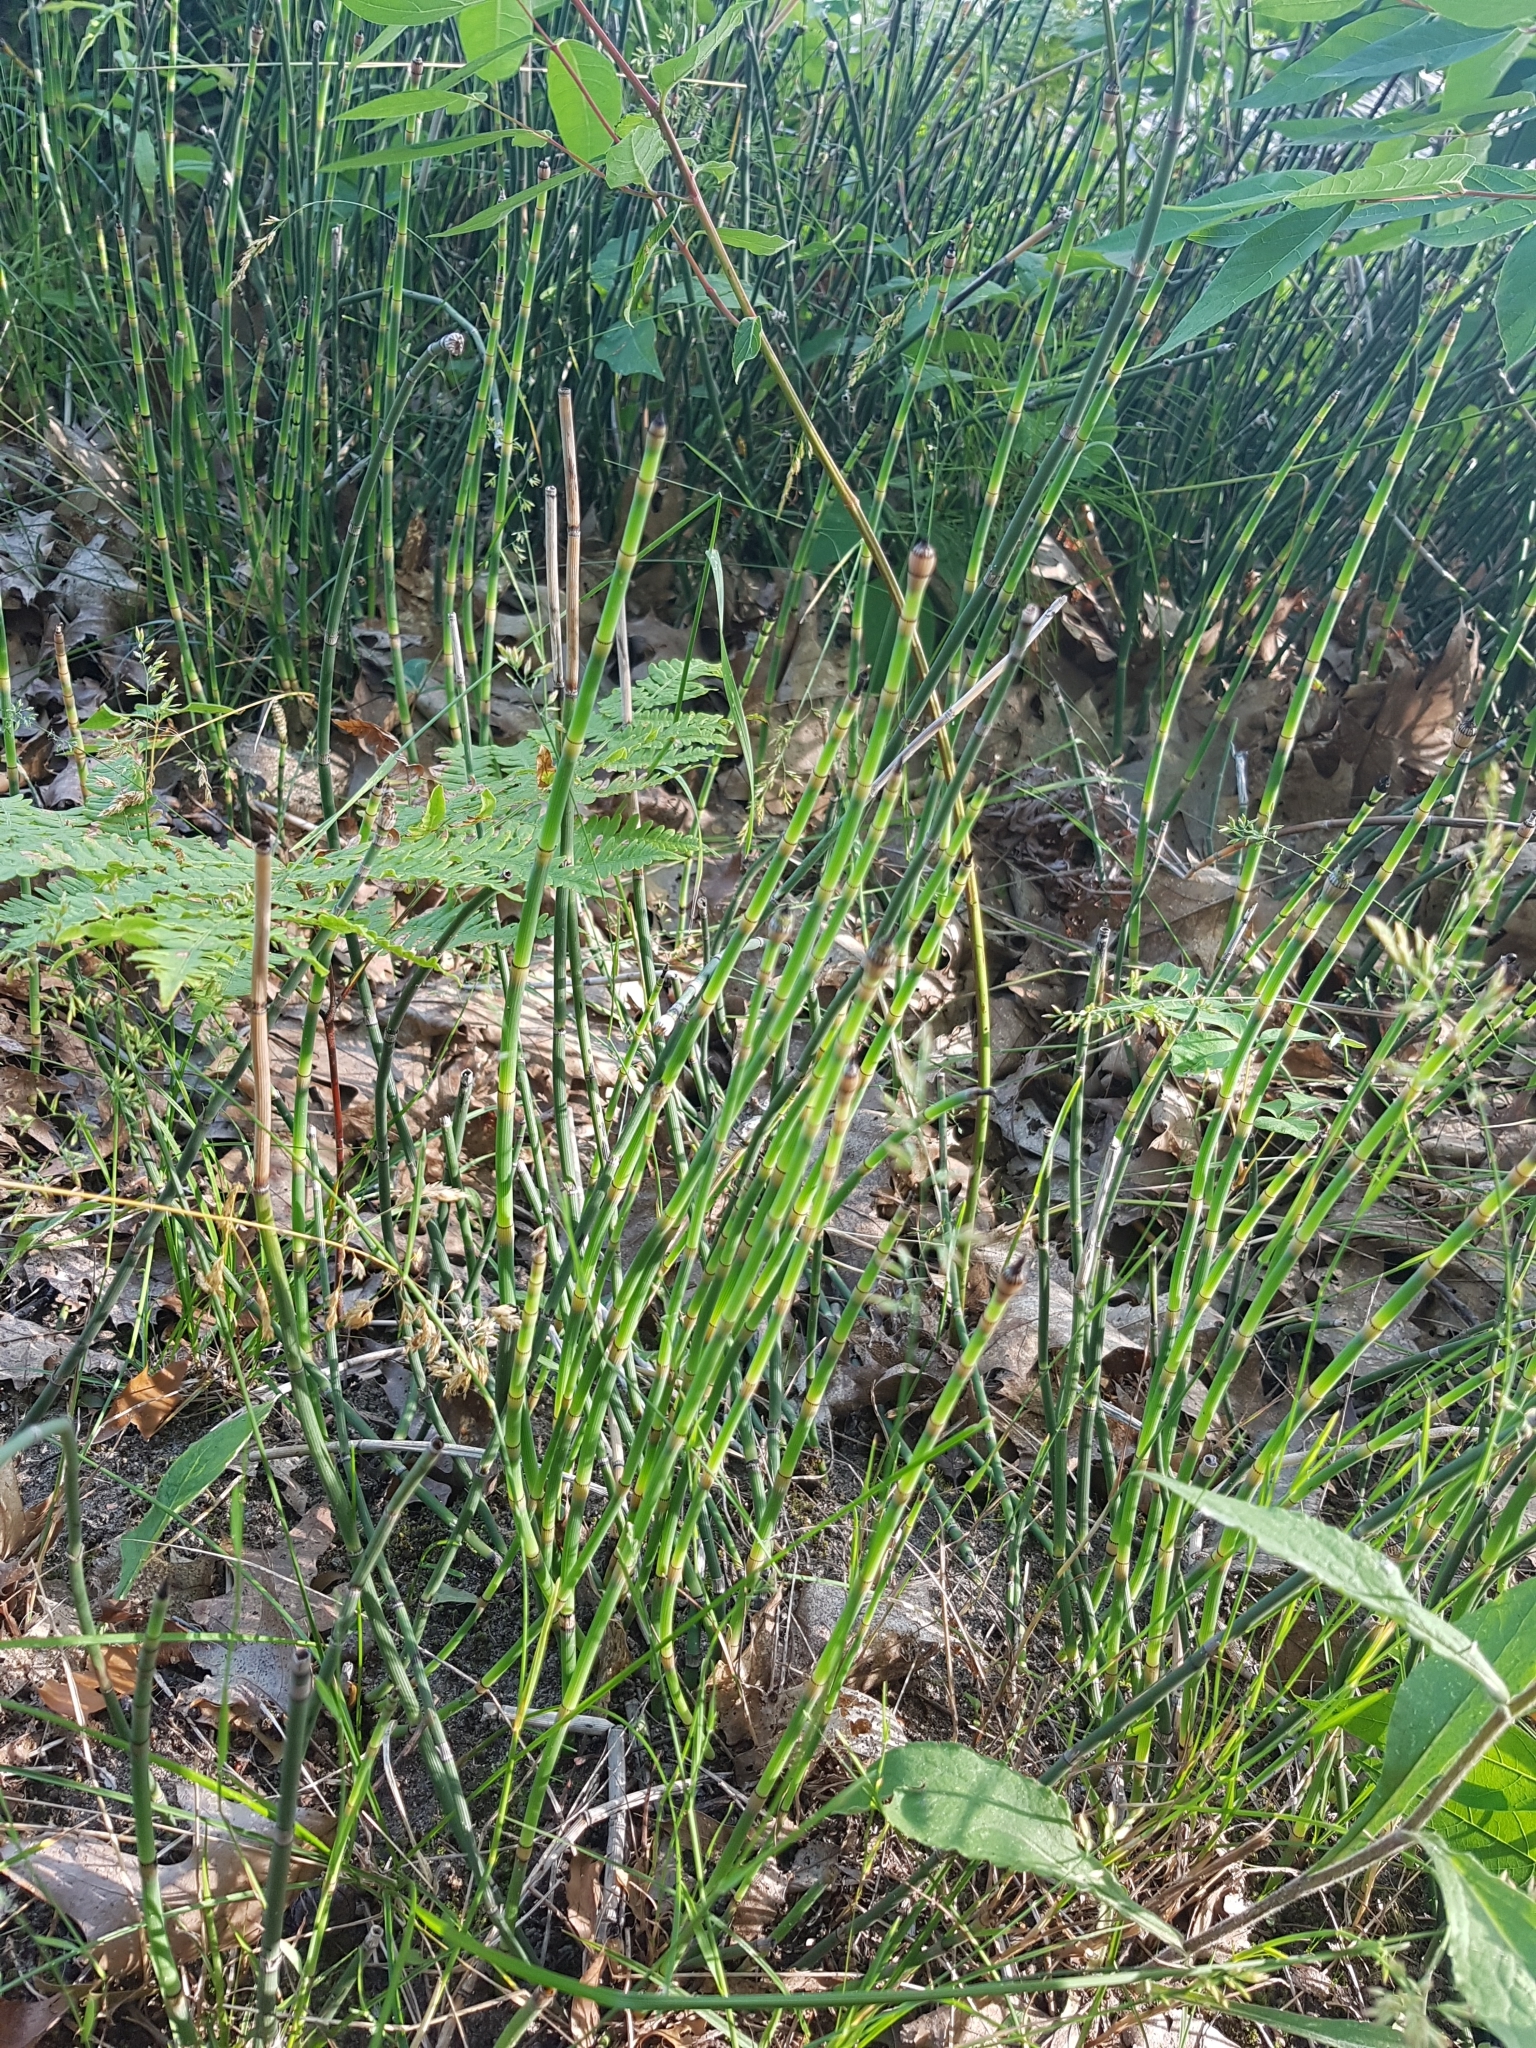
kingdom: Plantae
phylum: Tracheophyta
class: Polypodiopsida
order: Equisetales
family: Equisetaceae
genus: Equisetum
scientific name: Equisetum praealtum
